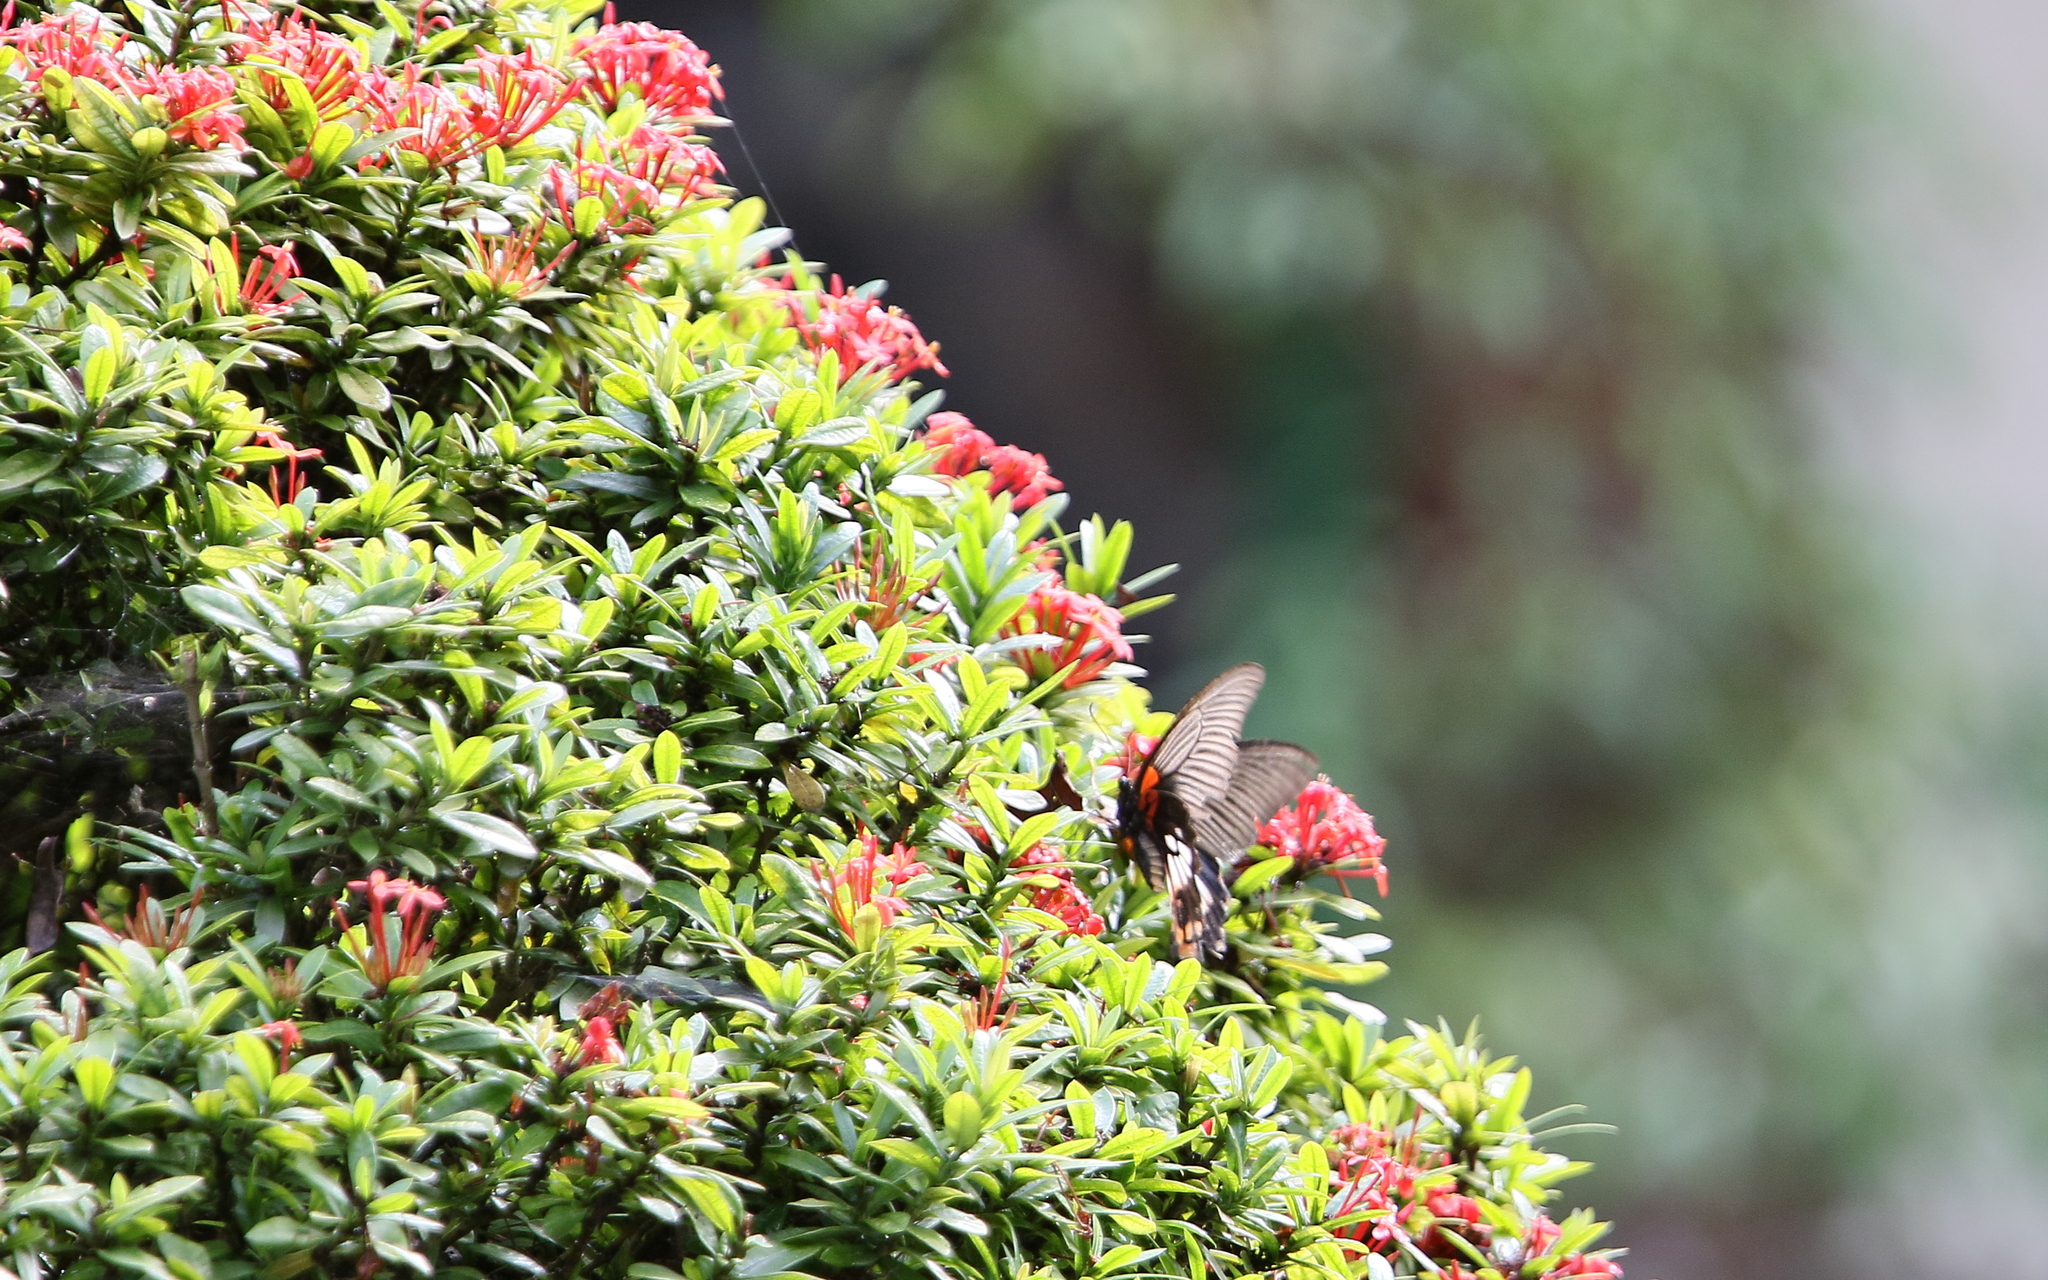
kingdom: Animalia
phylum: Arthropoda
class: Insecta
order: Lepidoptera
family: Papilionidae
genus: Papilio
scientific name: Papilio memnon
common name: Great mormon
